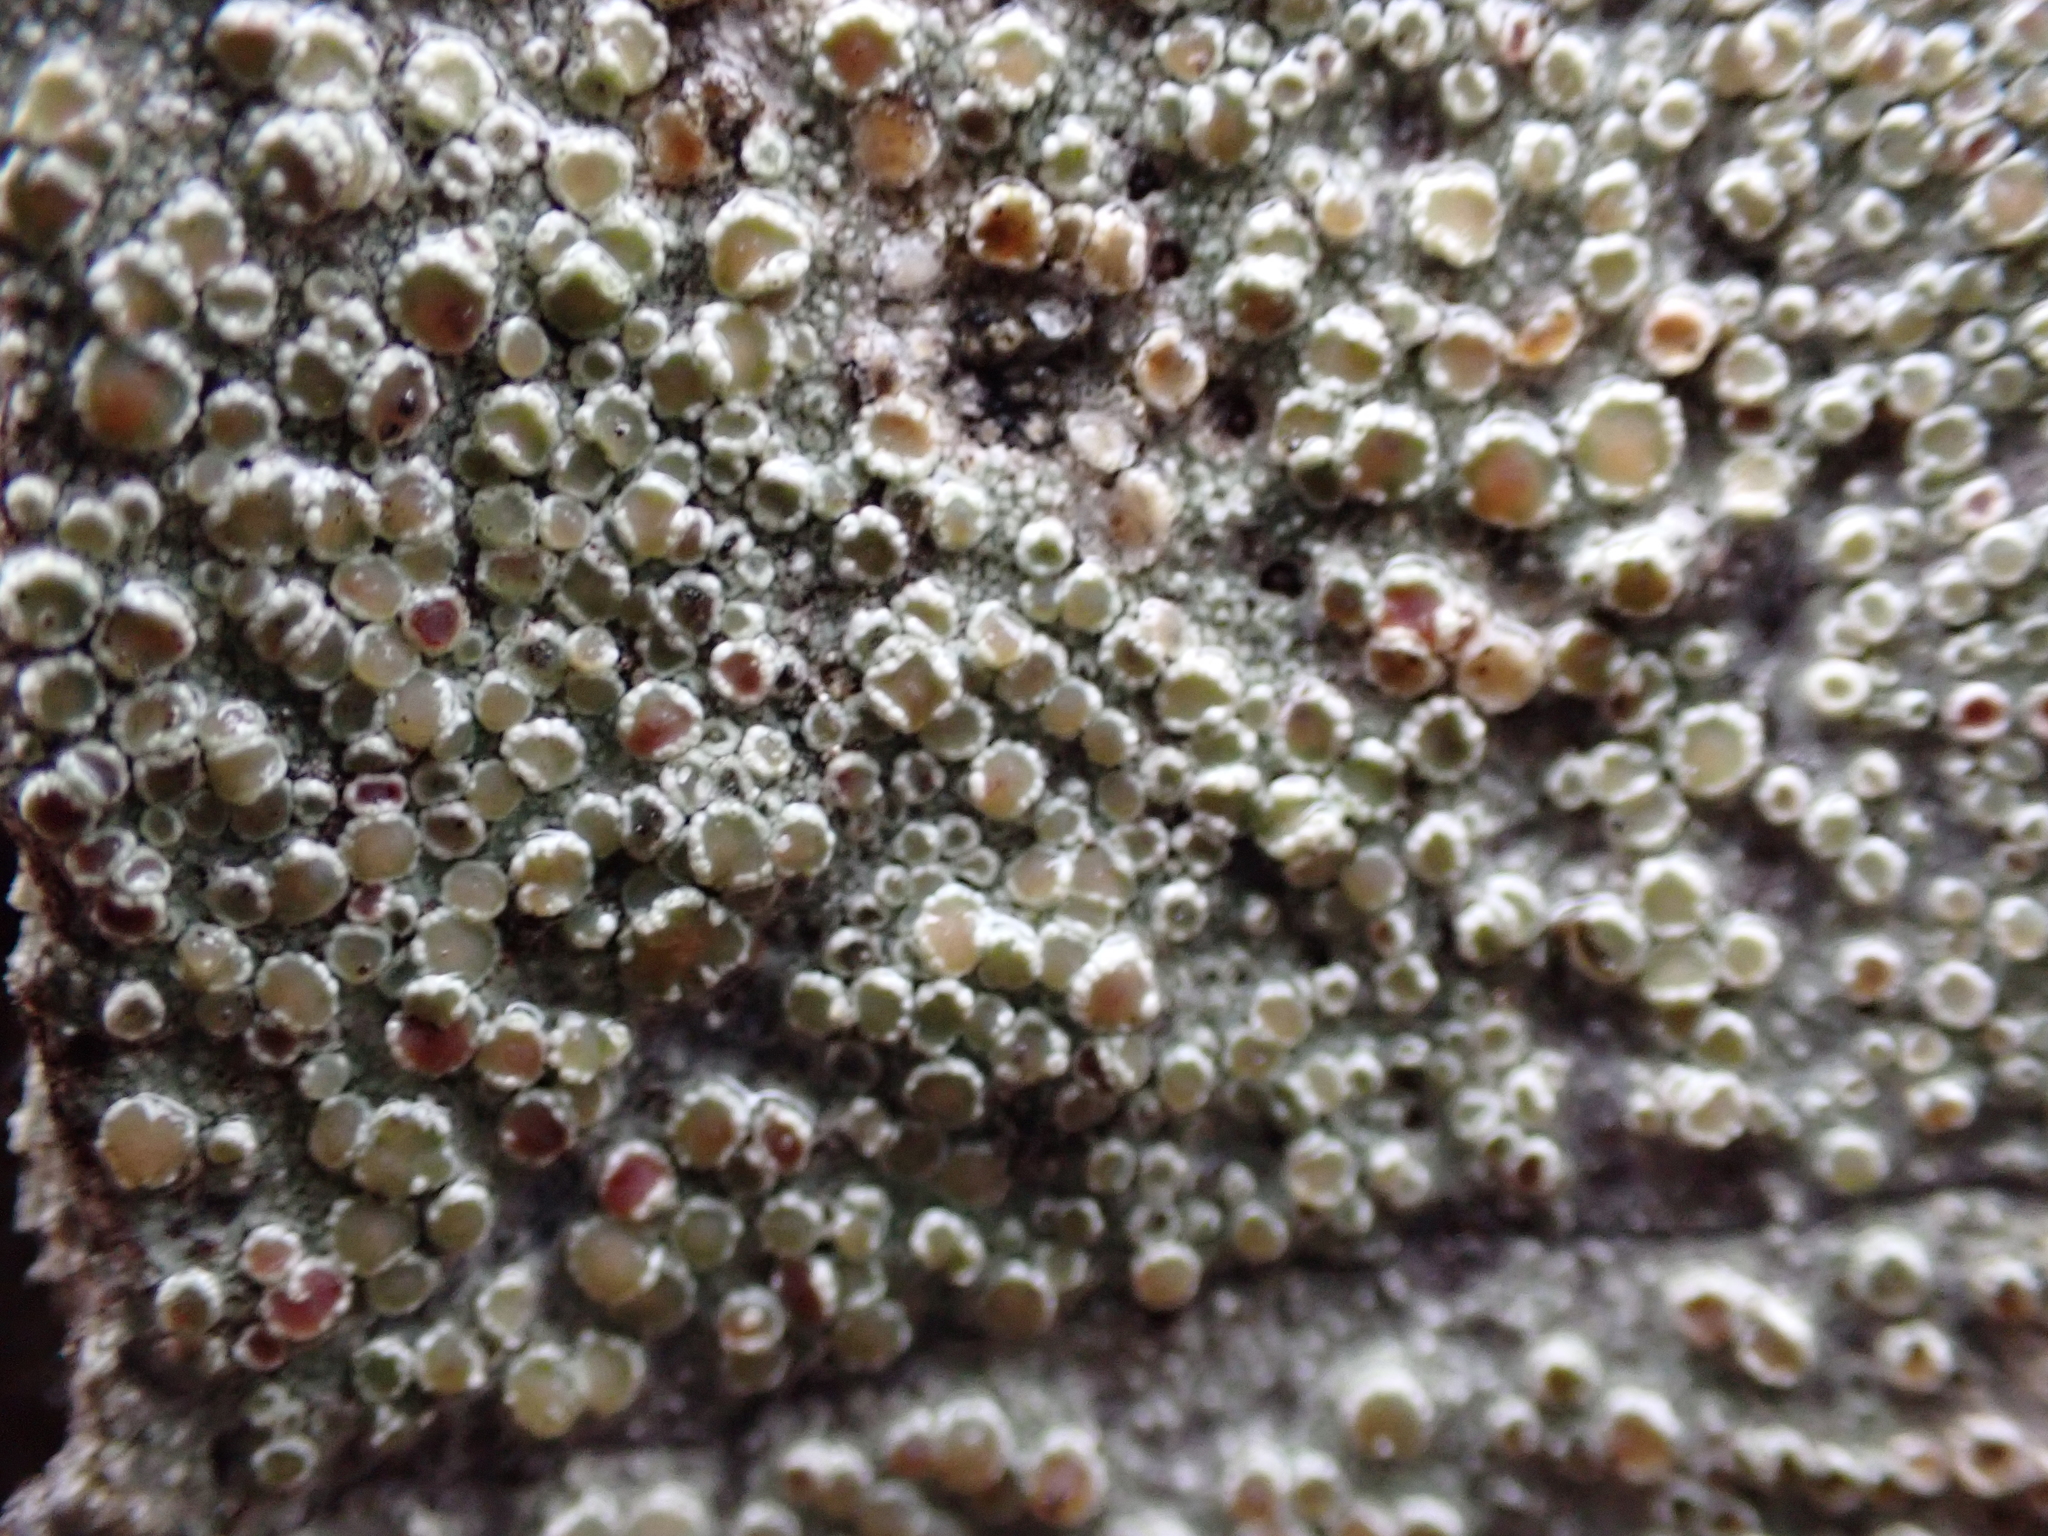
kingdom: Fungi
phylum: Ascomycota
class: Lecanoromycetes
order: Lecanorales
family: Lecanoraceae
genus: Lecanora
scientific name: Lecanora hybocarpa
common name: Bumpy rim-lichen
